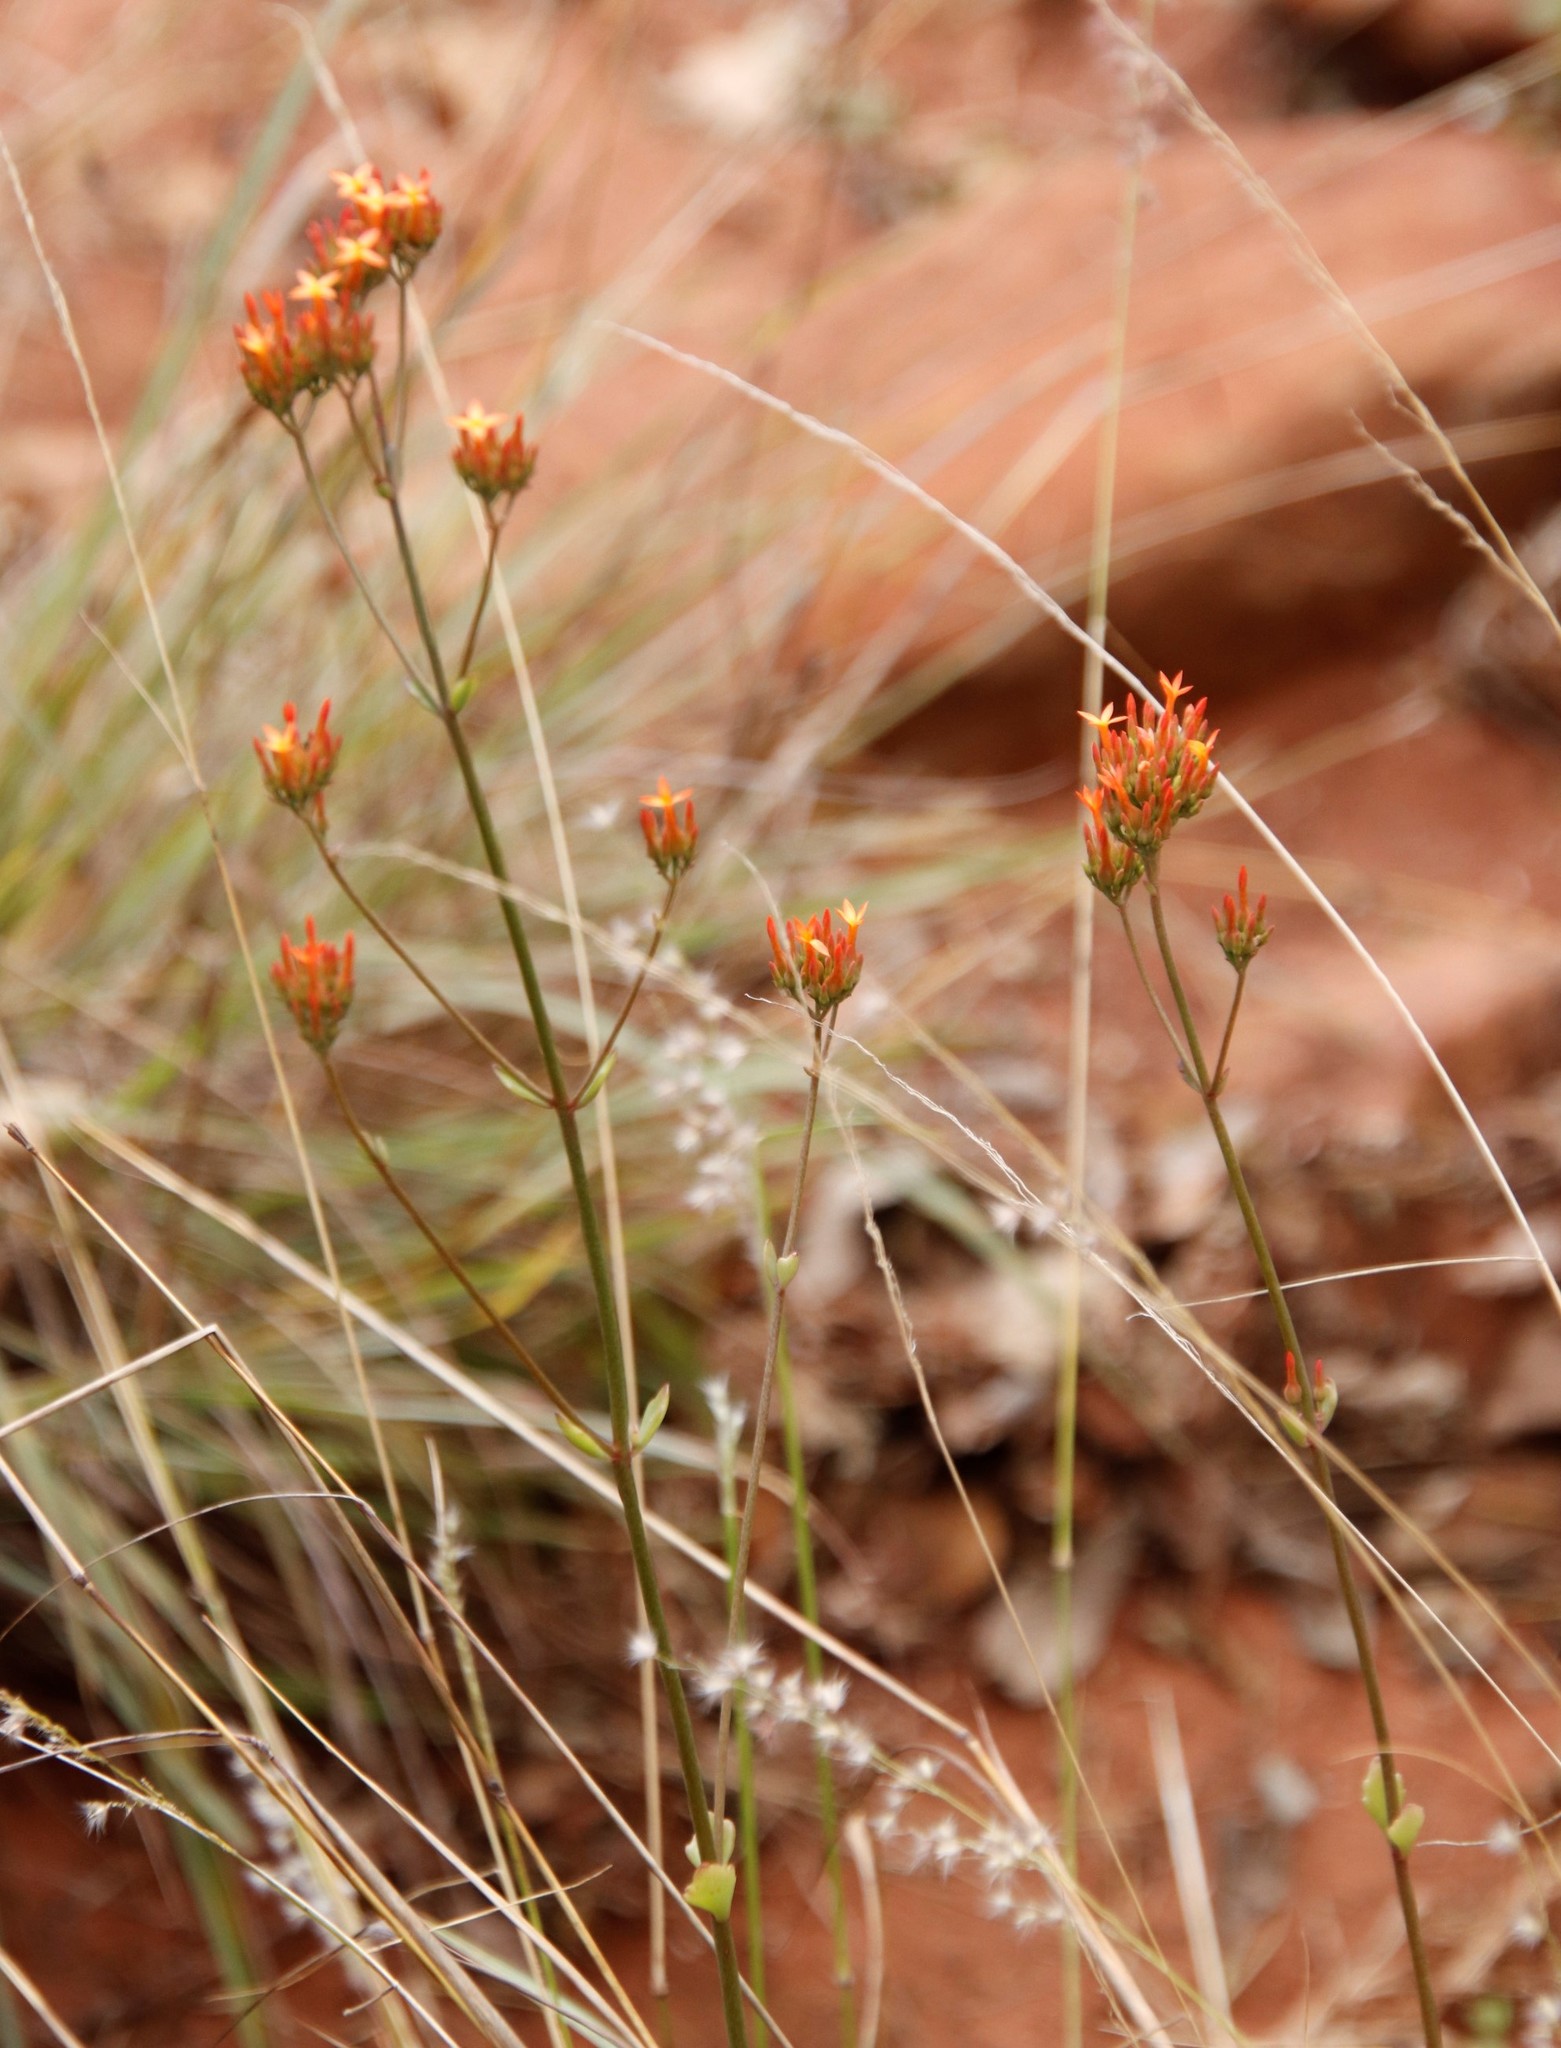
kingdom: Plantae
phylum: Tracheophyta
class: Magnoliopsida
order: Saxifragales
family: Crassulaceae
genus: Kalanchoe
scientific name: Kalanchoe rotundifolia
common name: Common kalanchoe
